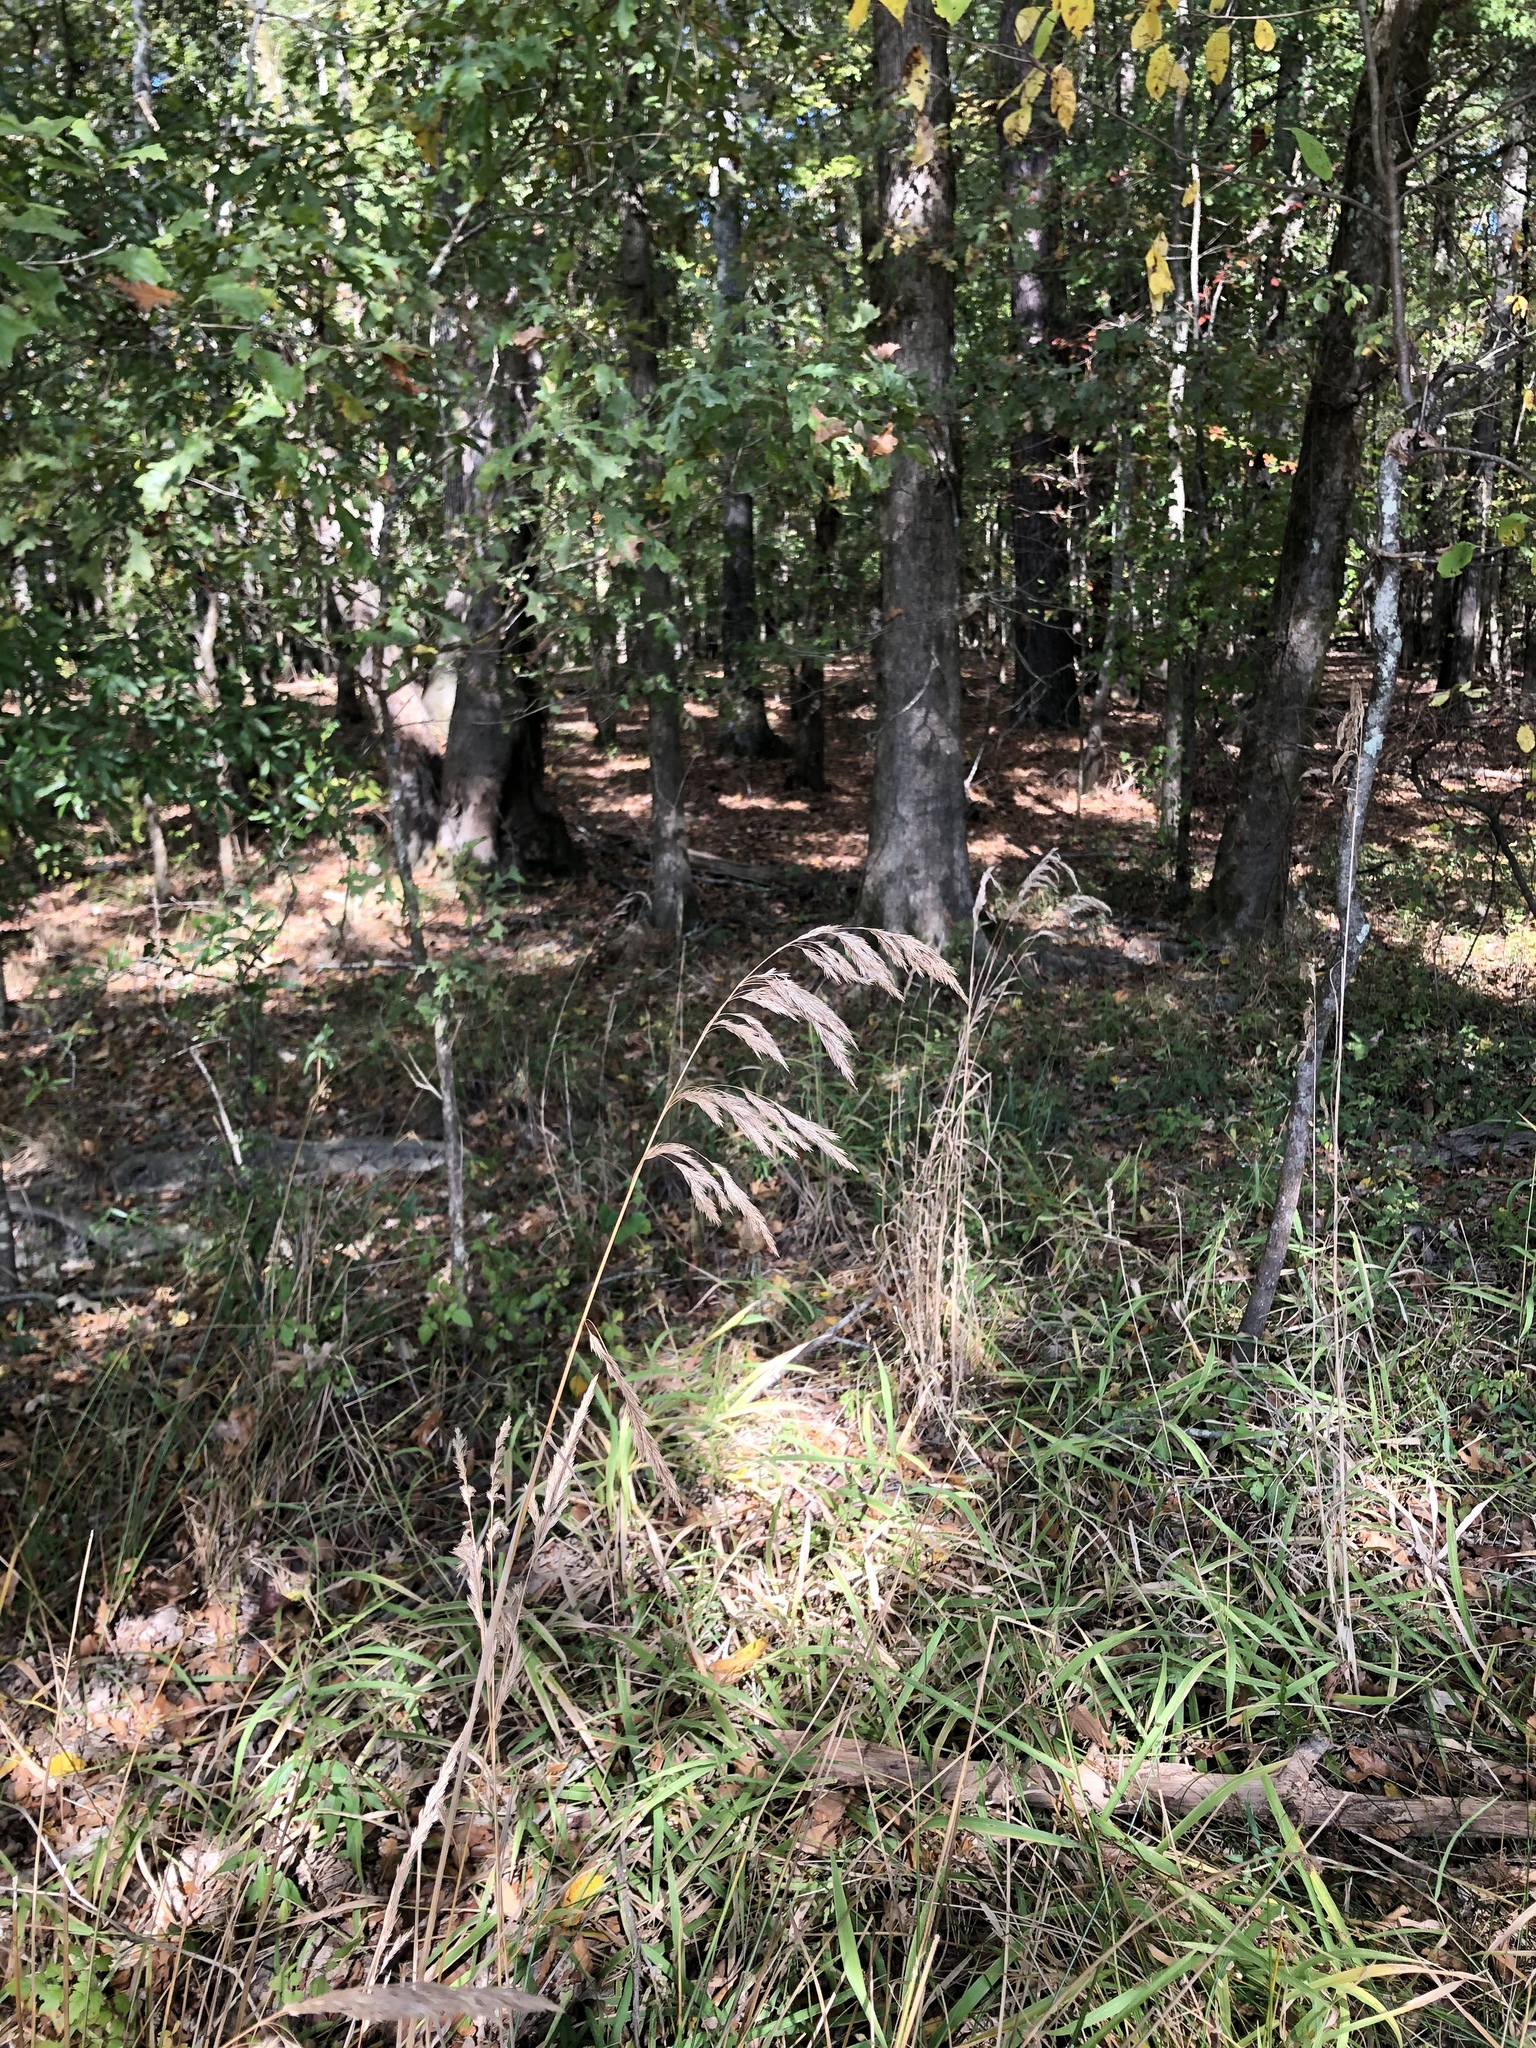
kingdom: Plantae
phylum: Tracheophyta
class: Liliopsida
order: Poales
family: Poaceae
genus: Cinna
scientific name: Cinna arundinacea
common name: Stout woodreed
